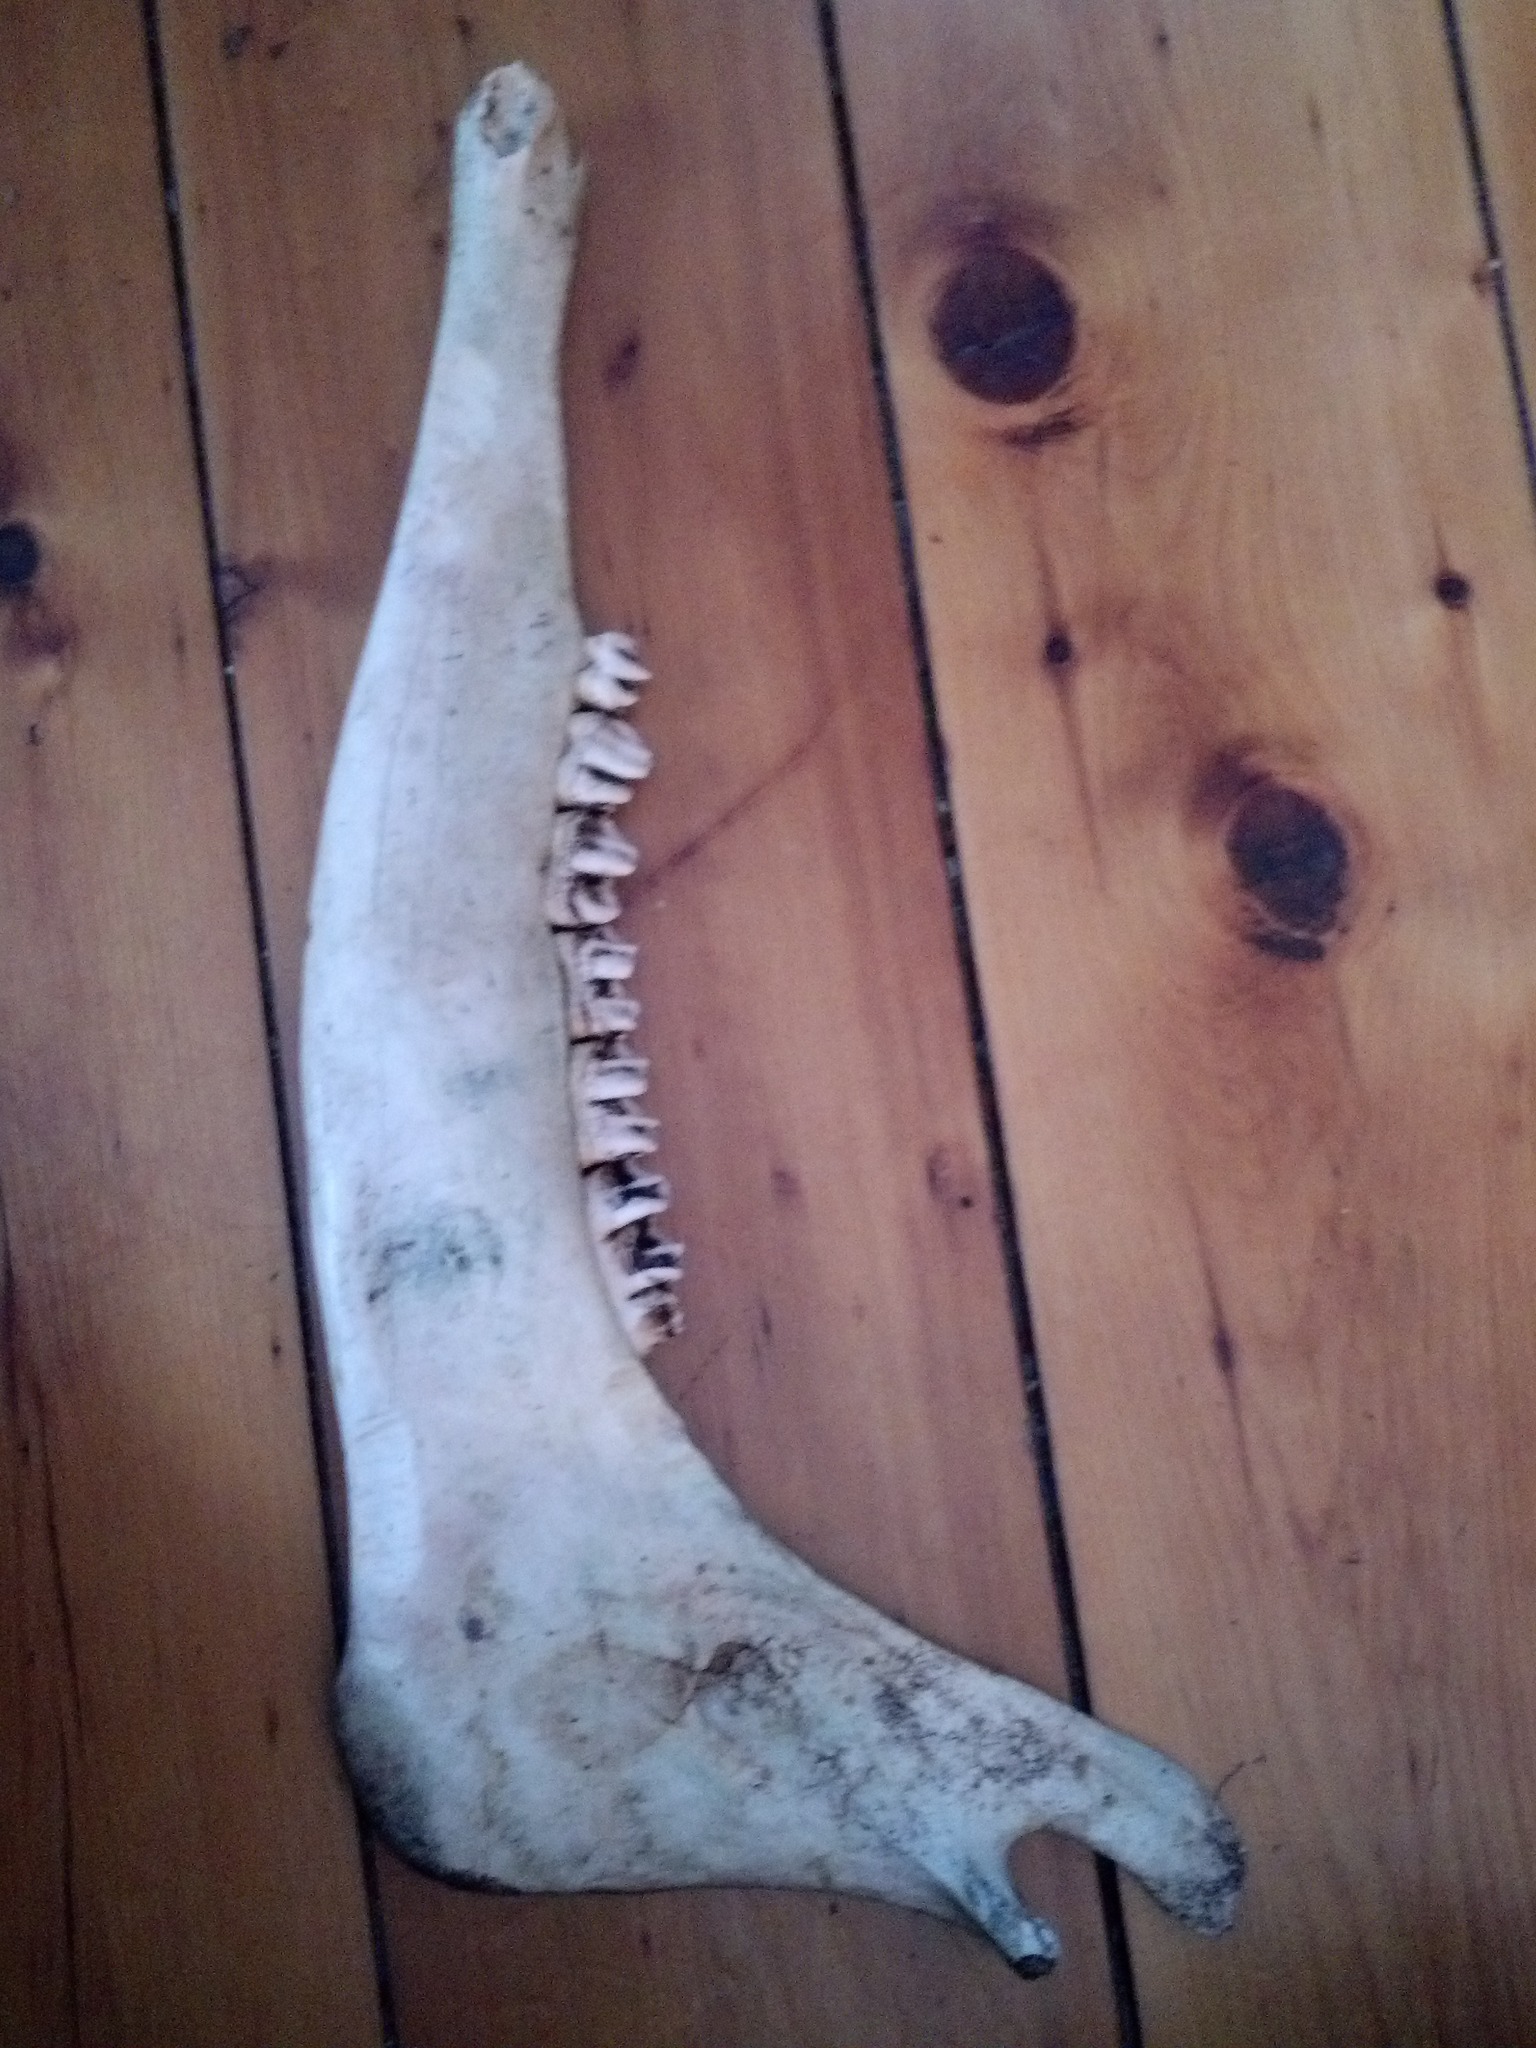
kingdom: Animalia
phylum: Chordata
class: Mammalia
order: Artiodactyla
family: Cervidae
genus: Alces
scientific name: Alces alces
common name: Moose
